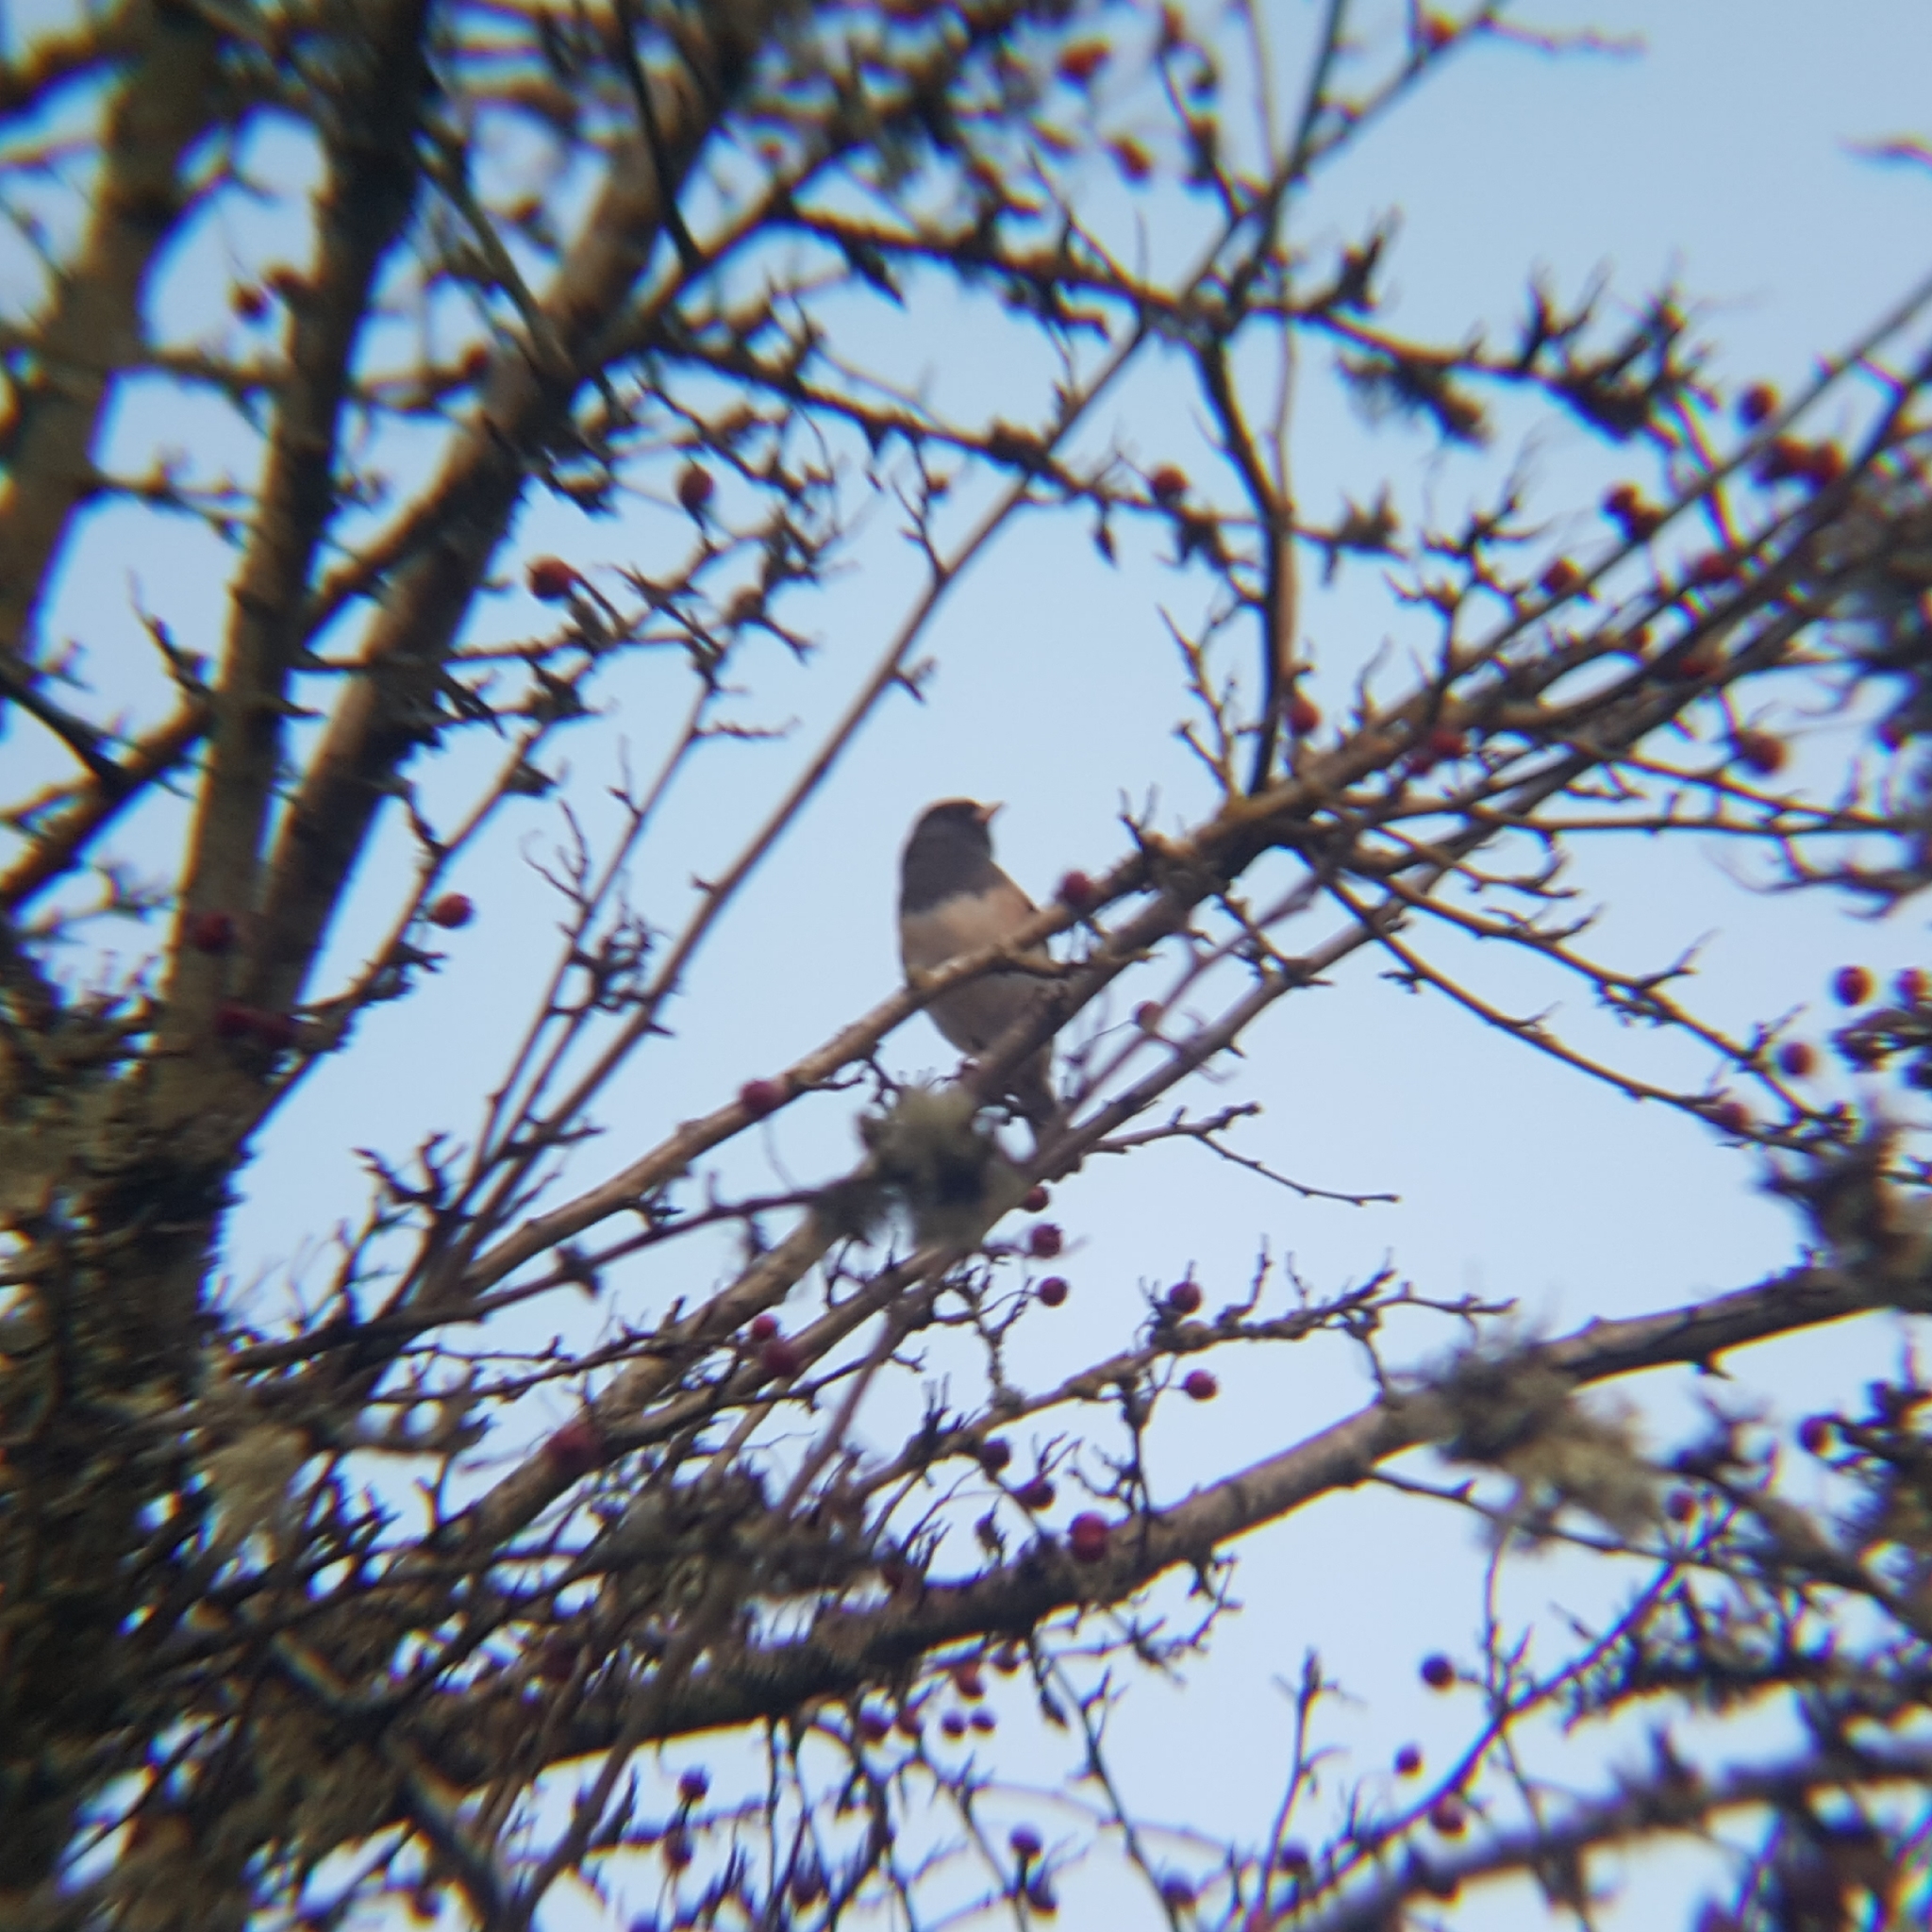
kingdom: Animalia
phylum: Chordata
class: Aves
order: Passeriformes
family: Passerellidae
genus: Junco
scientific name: Junco hyemalis
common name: Dark-eyed junco
